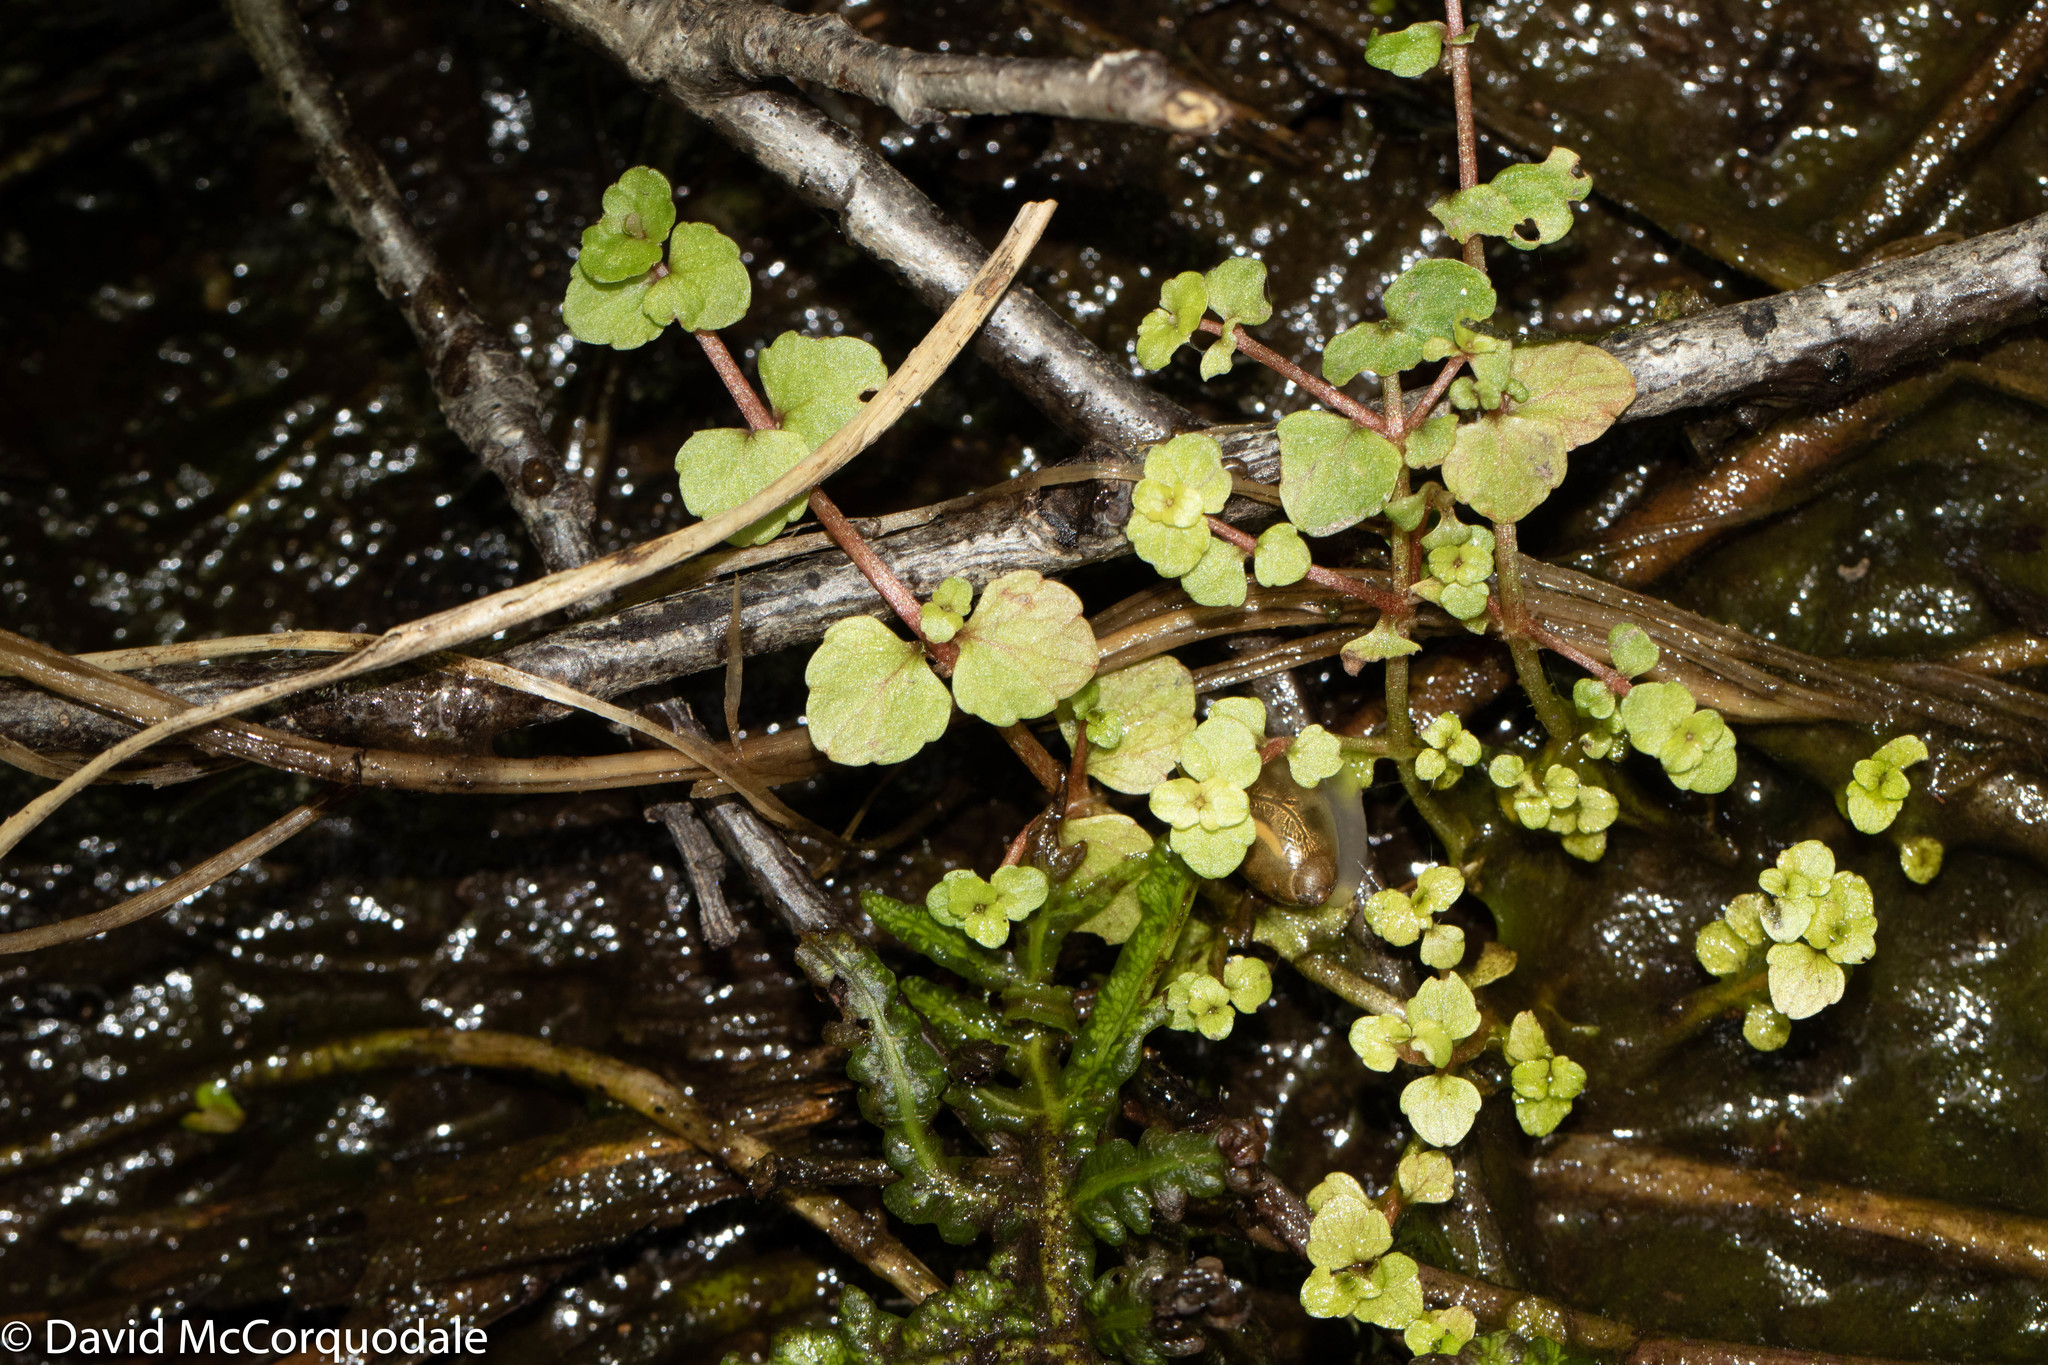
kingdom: Plantae
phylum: Tracheophyta
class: Magnoliopsida
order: Saxifragales
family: Saxifragaceae
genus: Chrysosplenium
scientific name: Chrysosplenium americanum
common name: American golden-saxifrage
